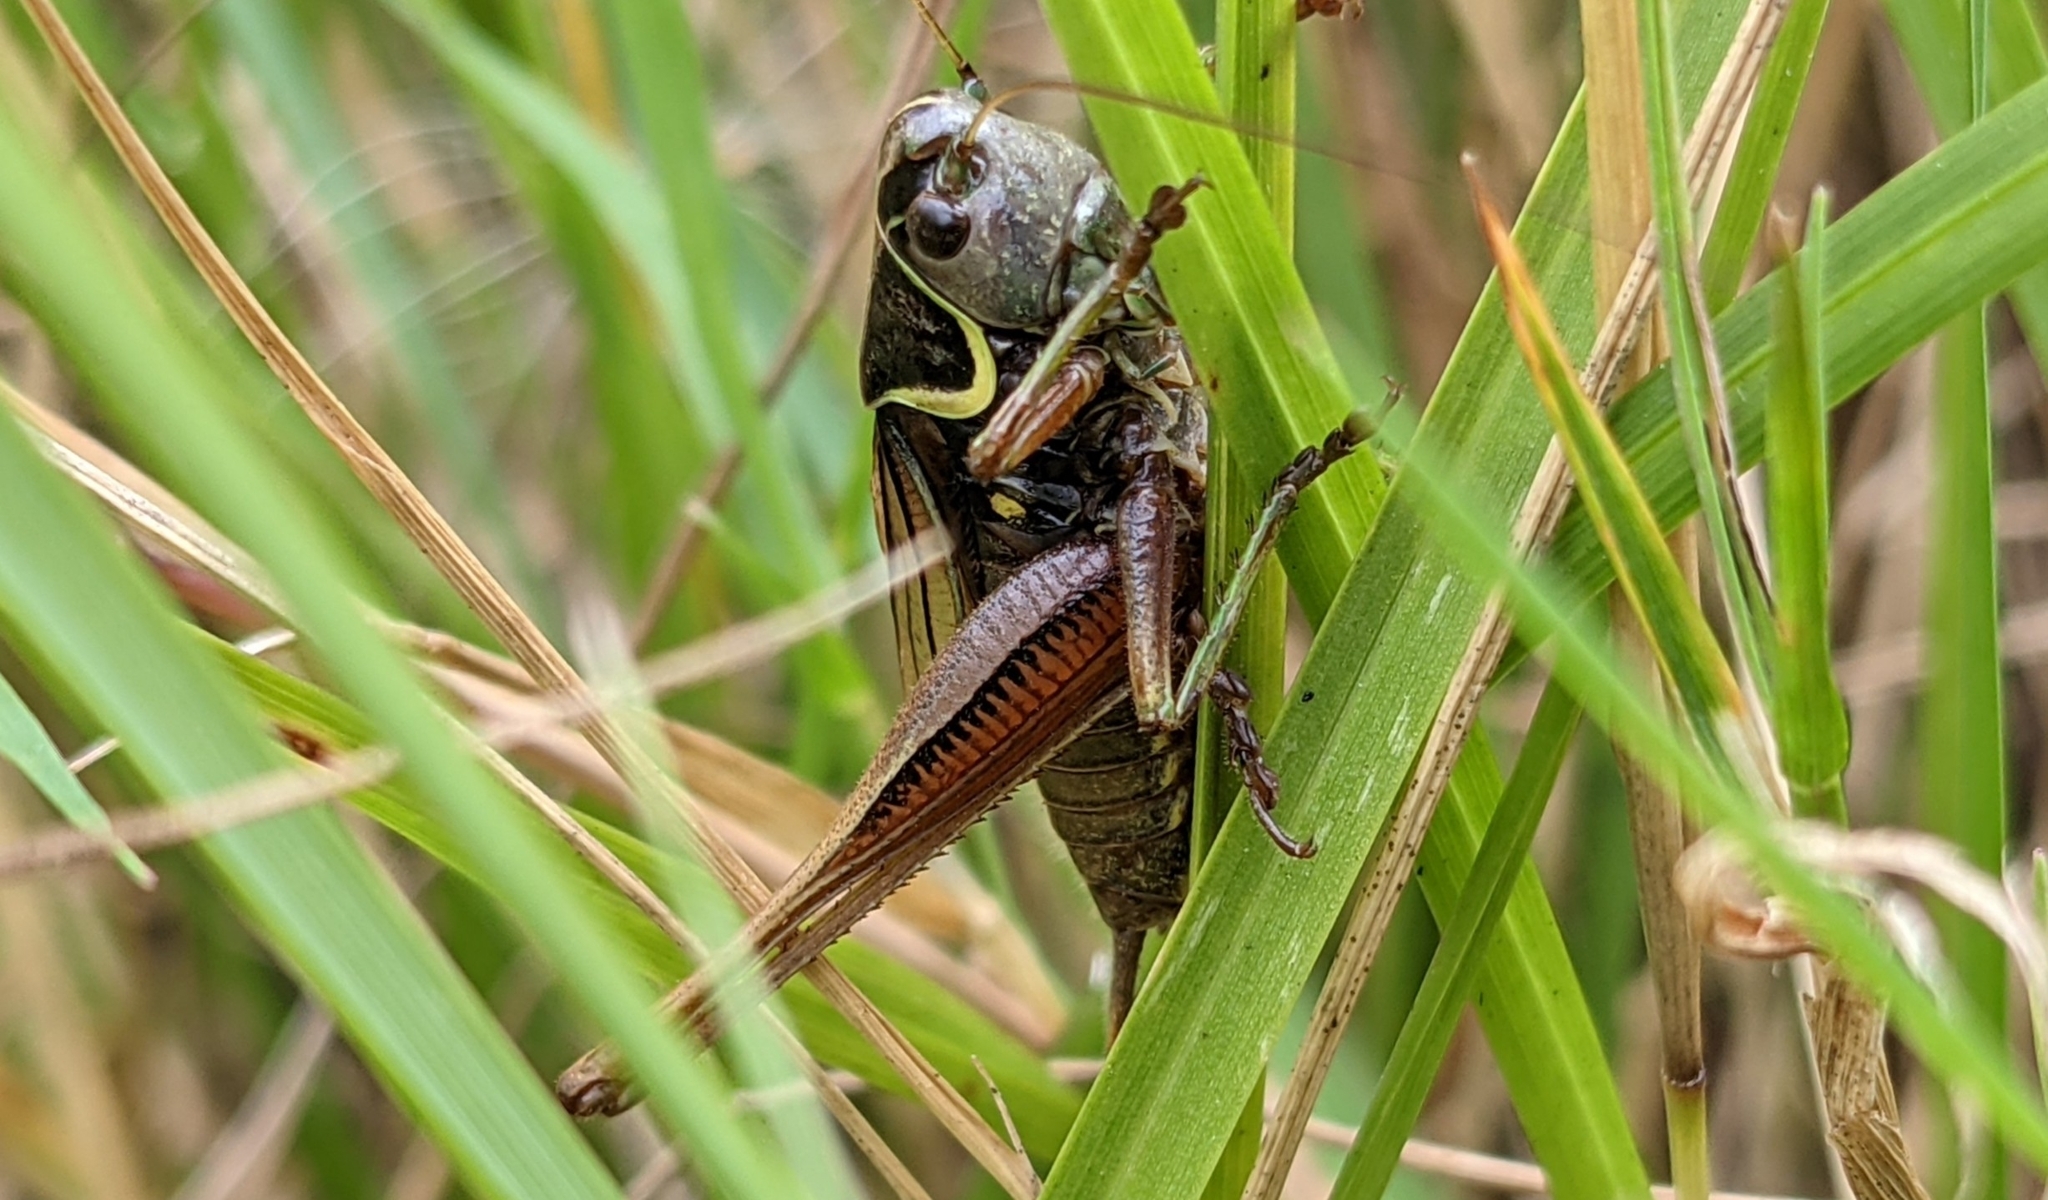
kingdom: Animalia
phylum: Arthropoda
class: Insecta
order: Orthoptera
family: Tettigoniidae
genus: Roeseliana
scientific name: Roeseliana roeselii
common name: Roesel's bush cricket
